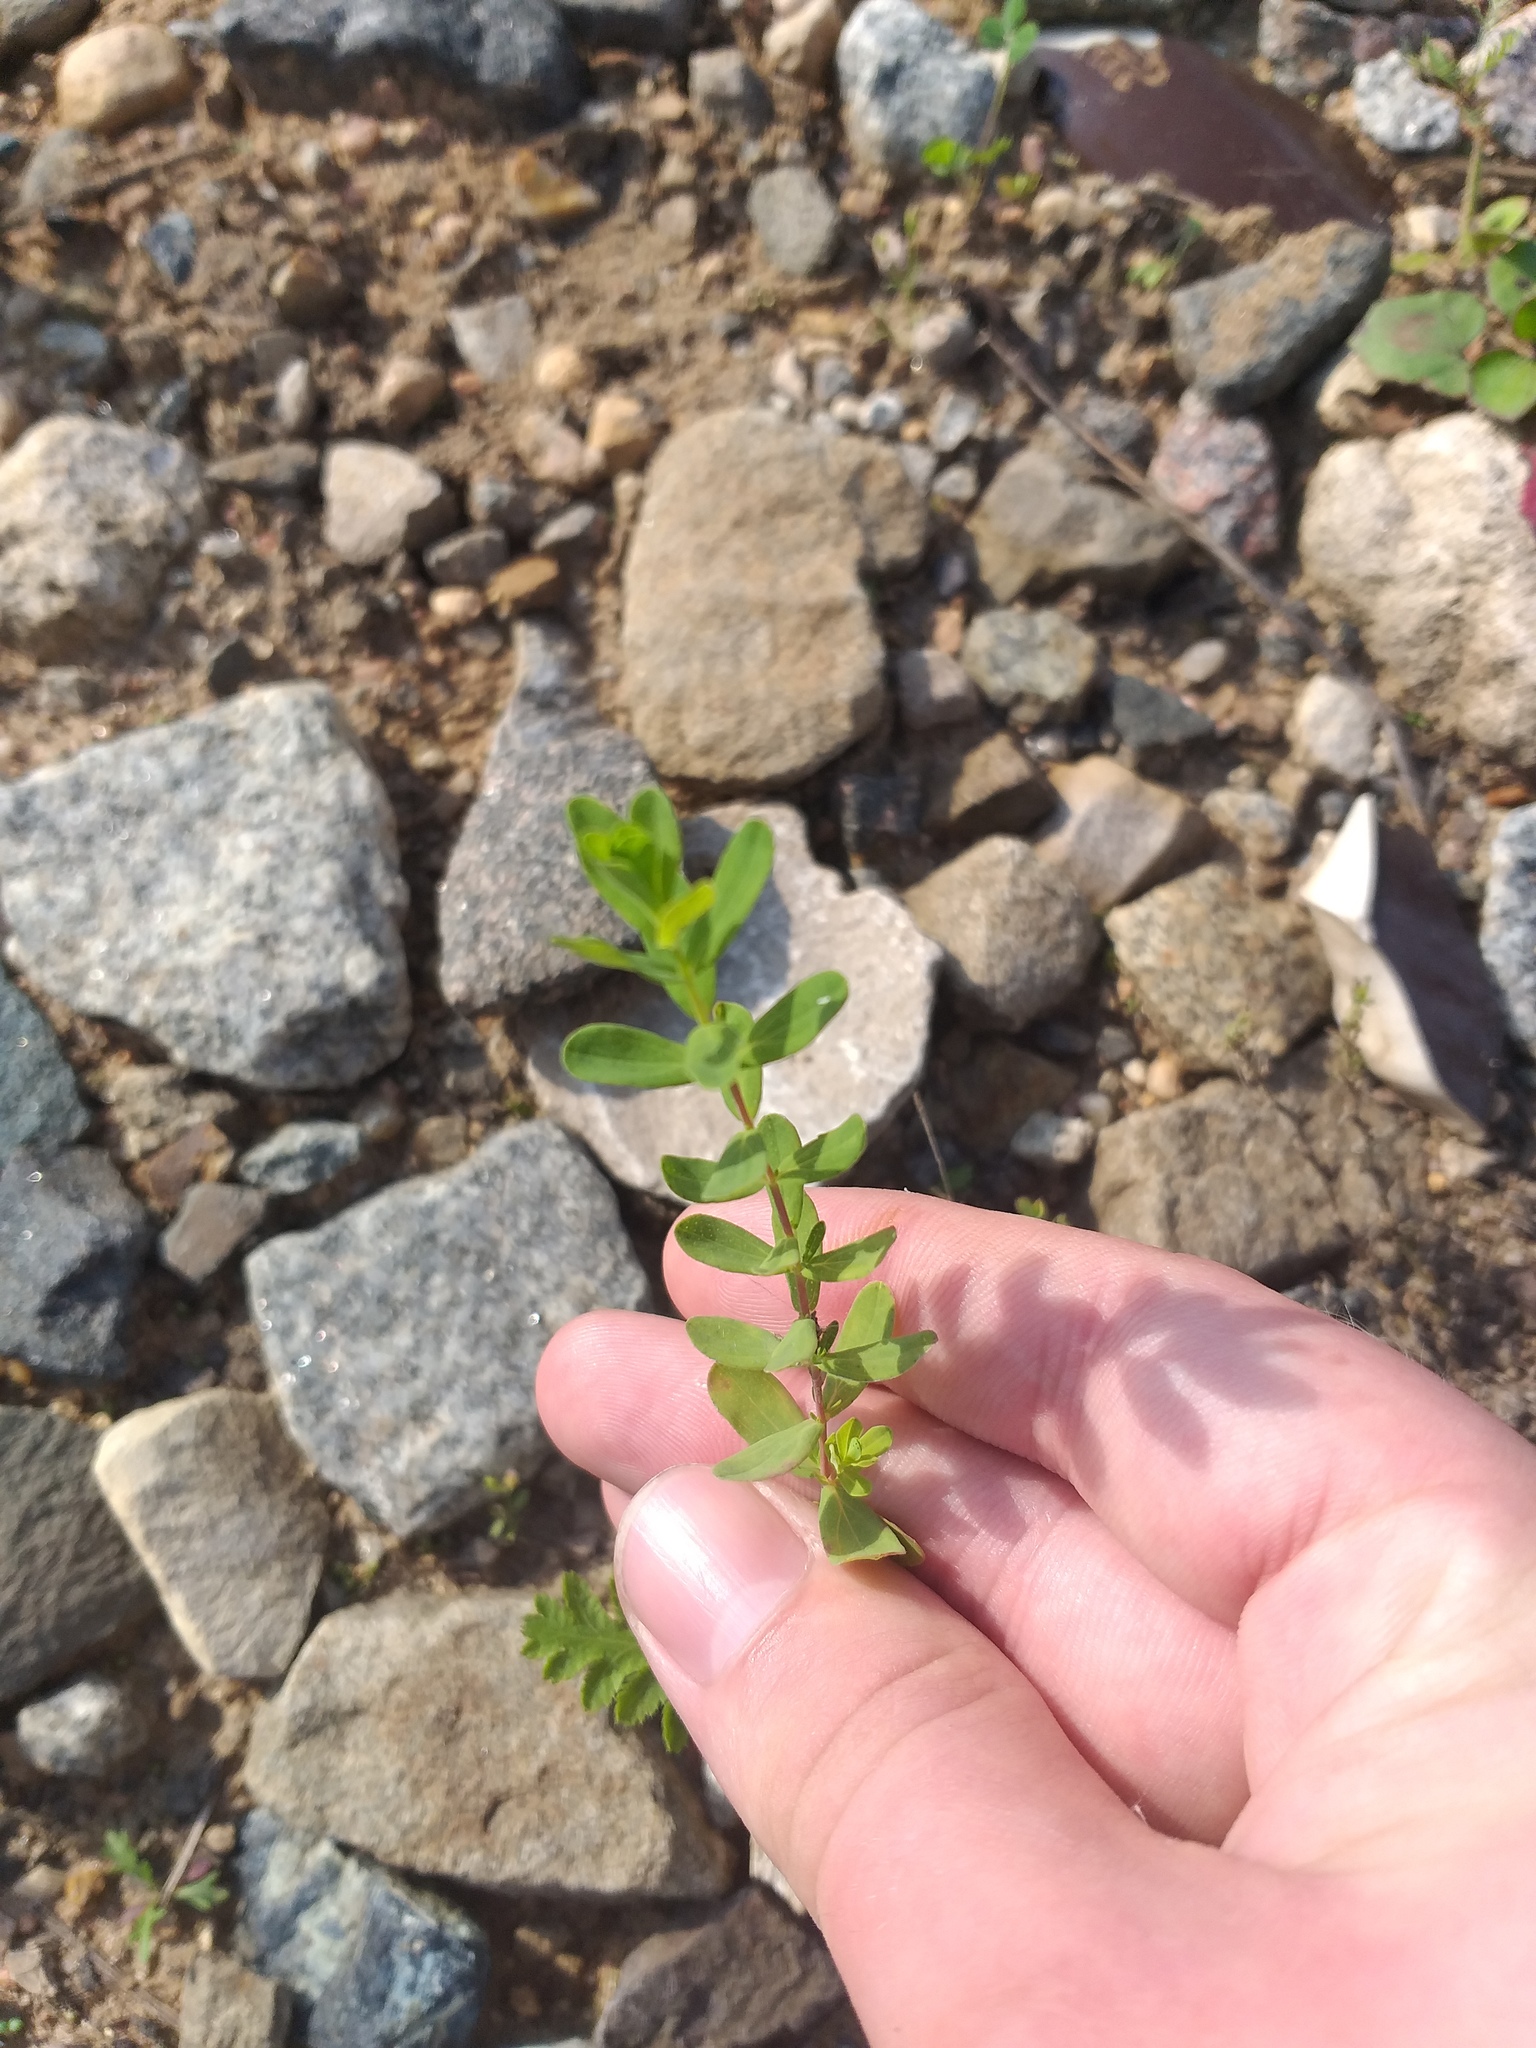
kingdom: Plantae
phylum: Tracheophyta
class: Magnoliopsida
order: Malpighiales
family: Hypericaceae
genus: Hypericum
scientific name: Hypericum perforatum
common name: Common st. johnswort
